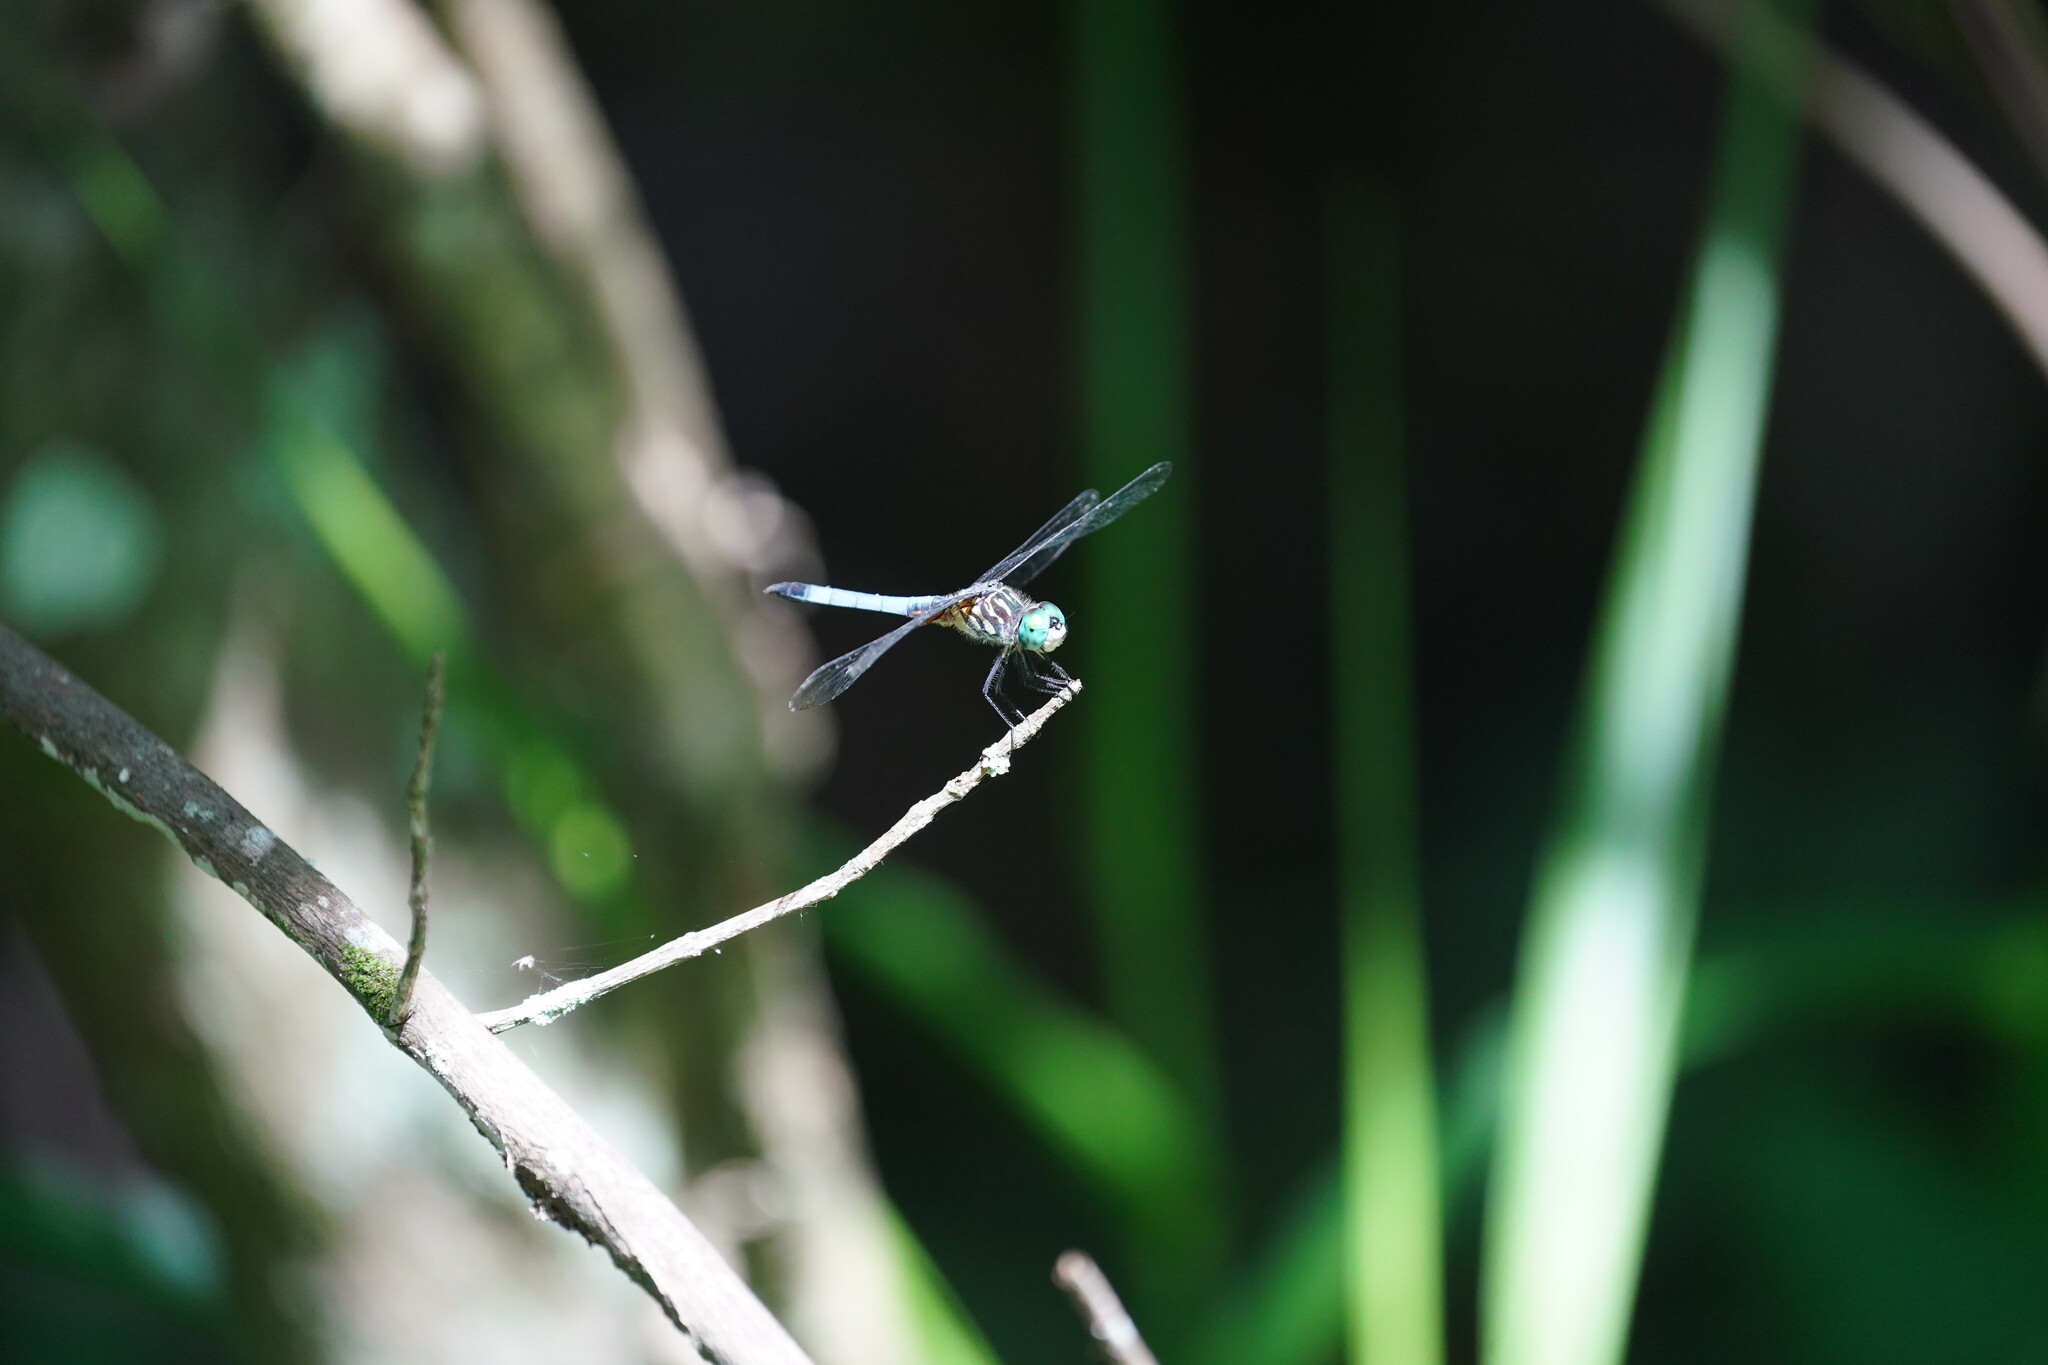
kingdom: Animalia
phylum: Arthropoda
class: Insecta
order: Odonata
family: Libellulidae
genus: Pachydiplax
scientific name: Pachydiplax longipennis
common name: Blue dasher
